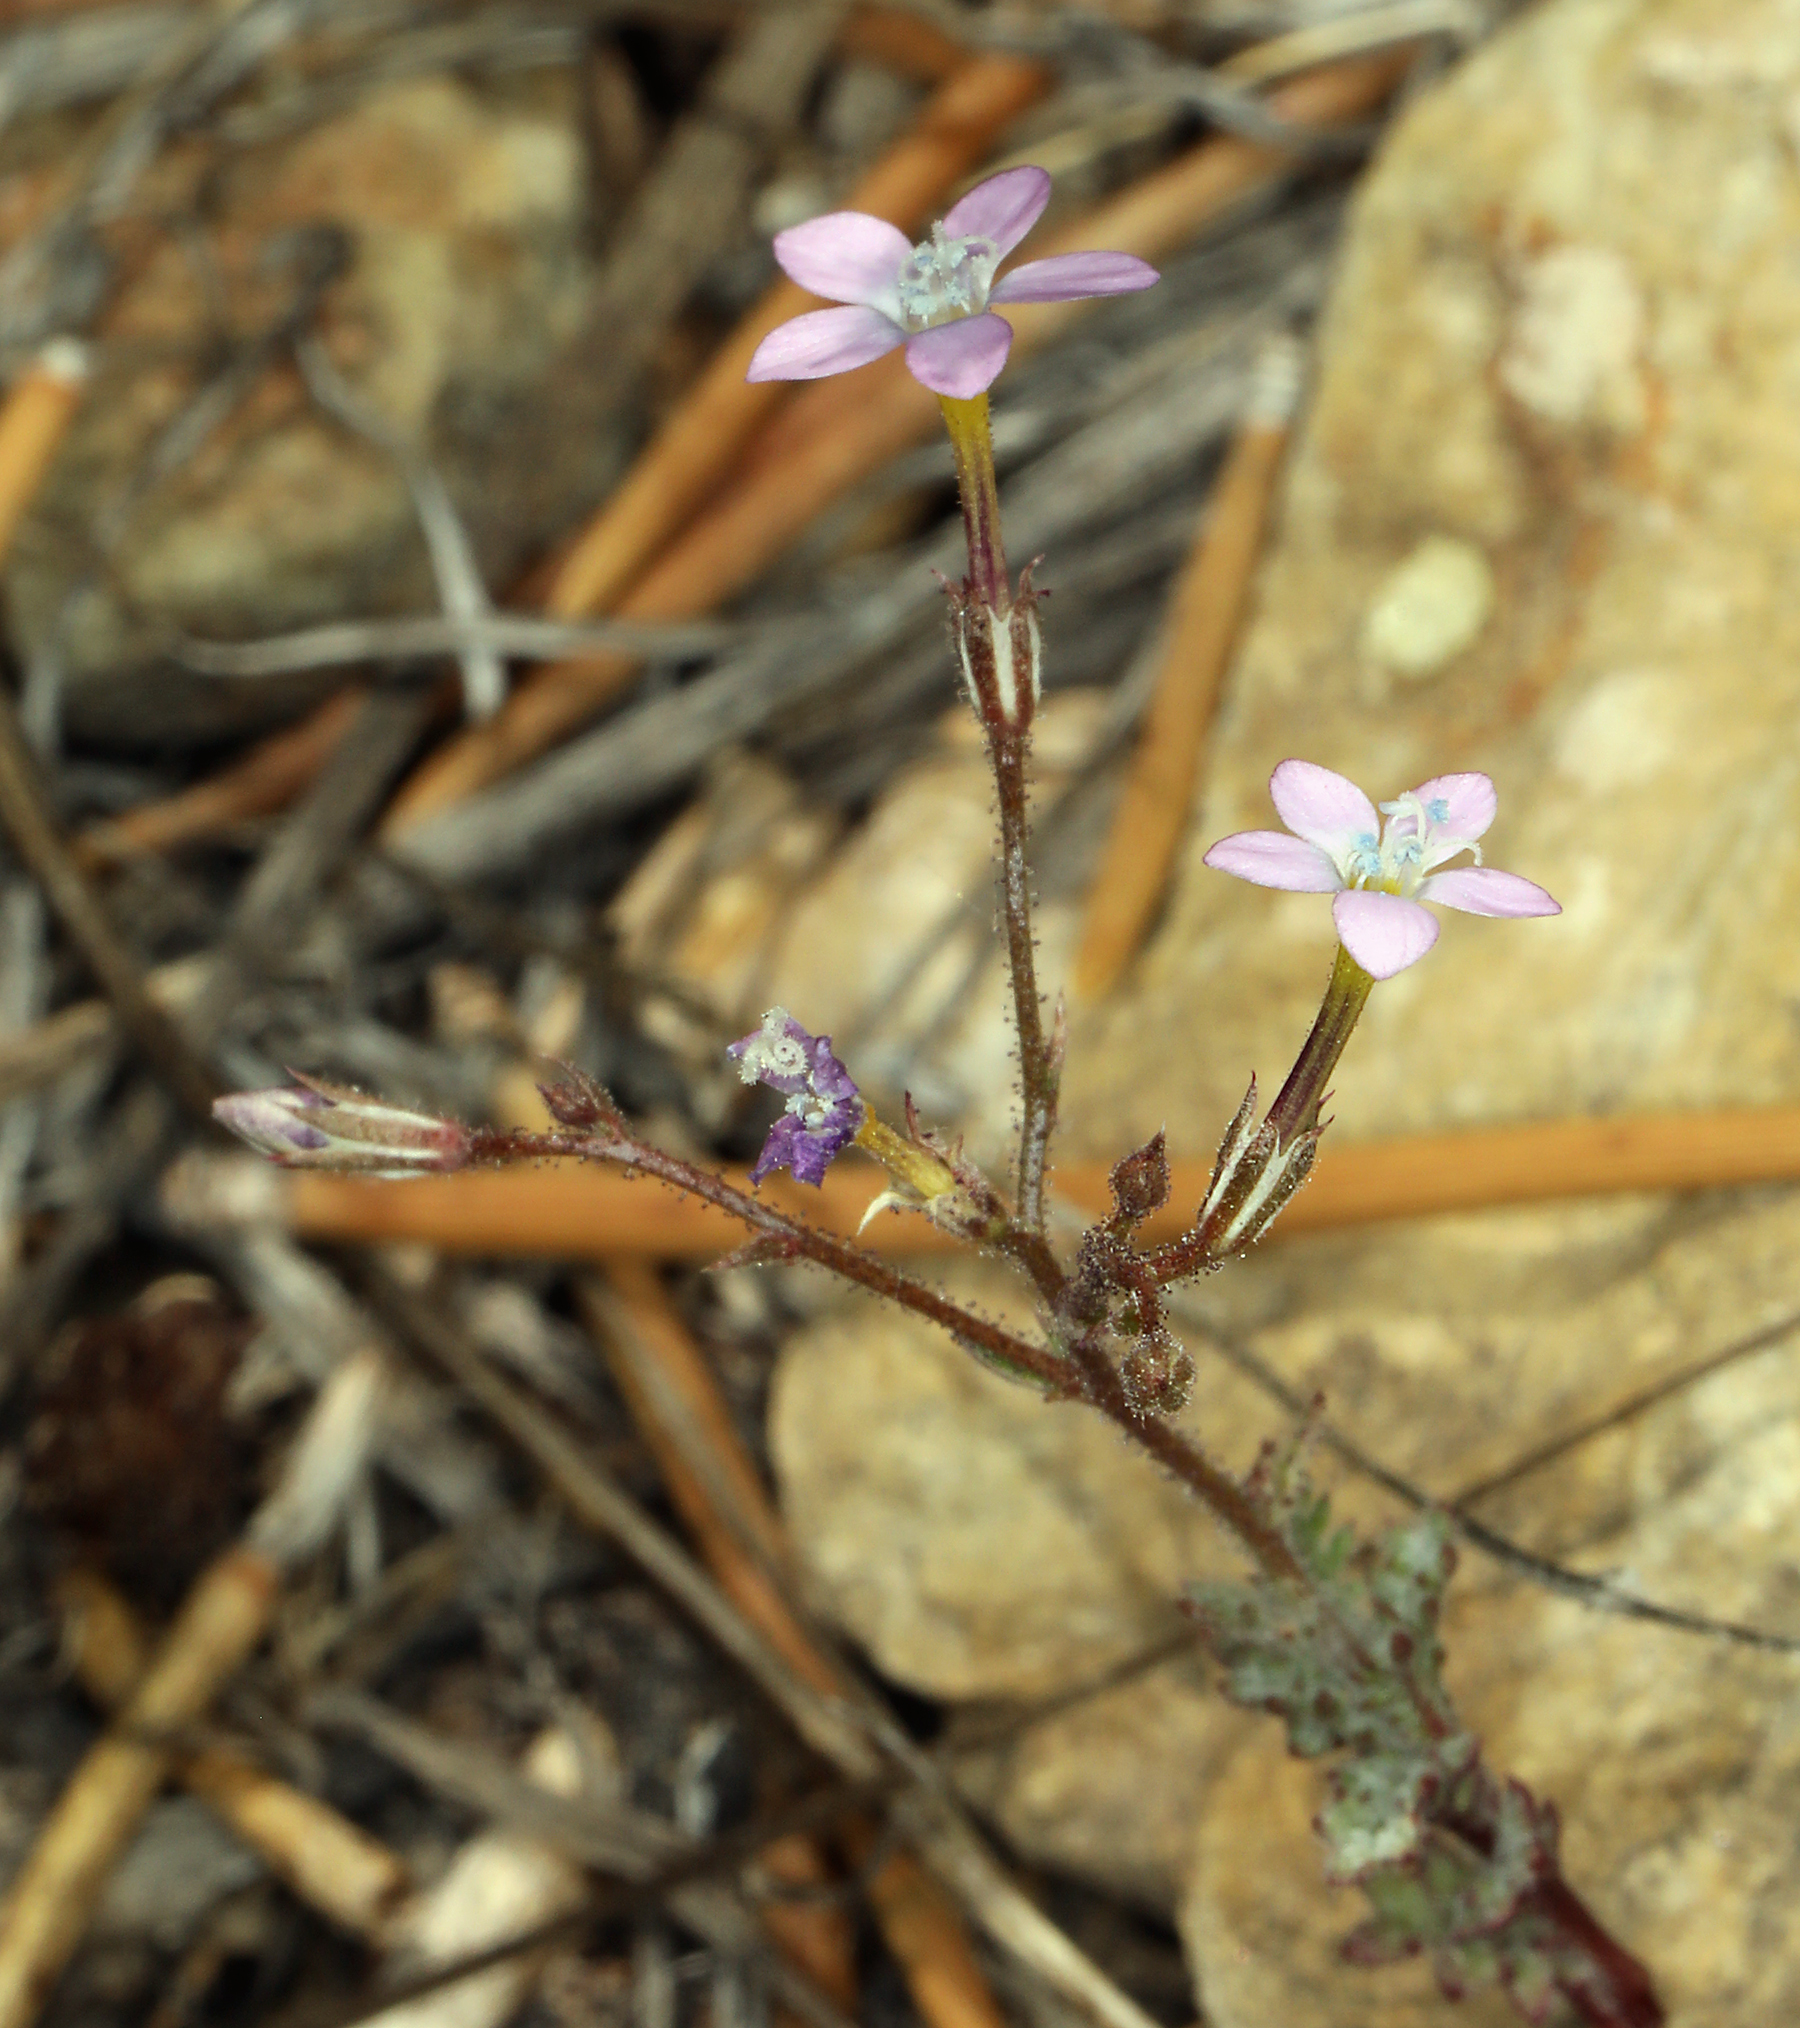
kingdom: Plantae
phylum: Tracheophyta
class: Magnoliopsida
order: Ericales
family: Polemoniaceae
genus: Gilia
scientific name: Gilia ophthalmoides
